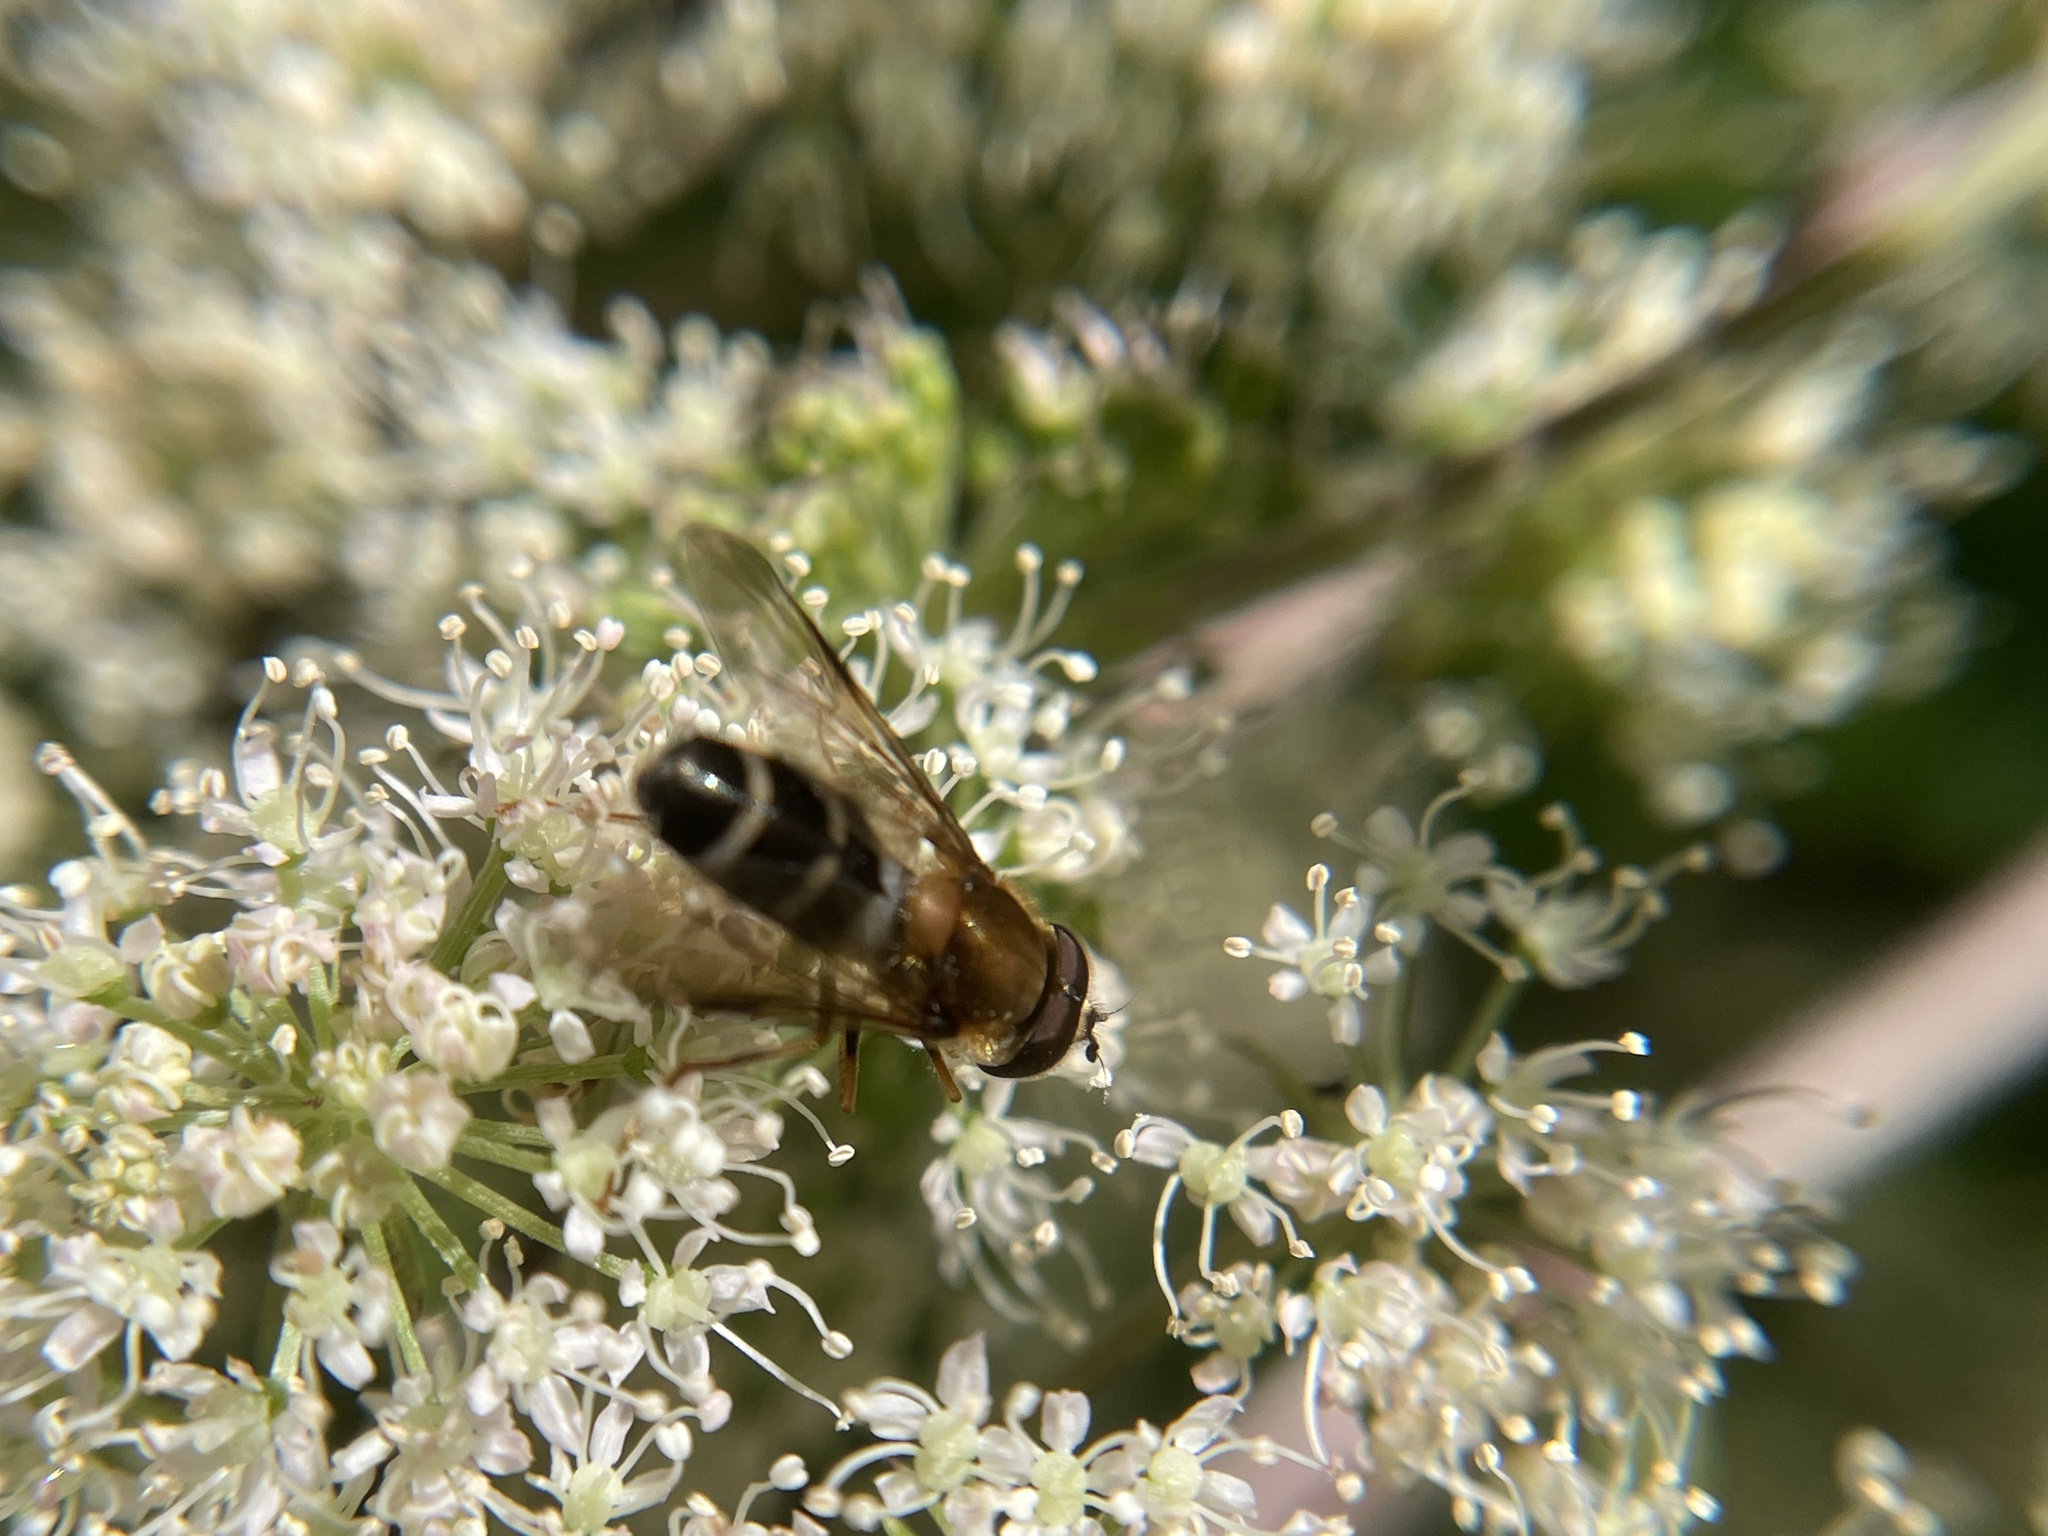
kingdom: Animalia
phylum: Arthropoda
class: Insecta
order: Diptera
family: Syrphidae
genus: Leucozona
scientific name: Leucozona glaucia
